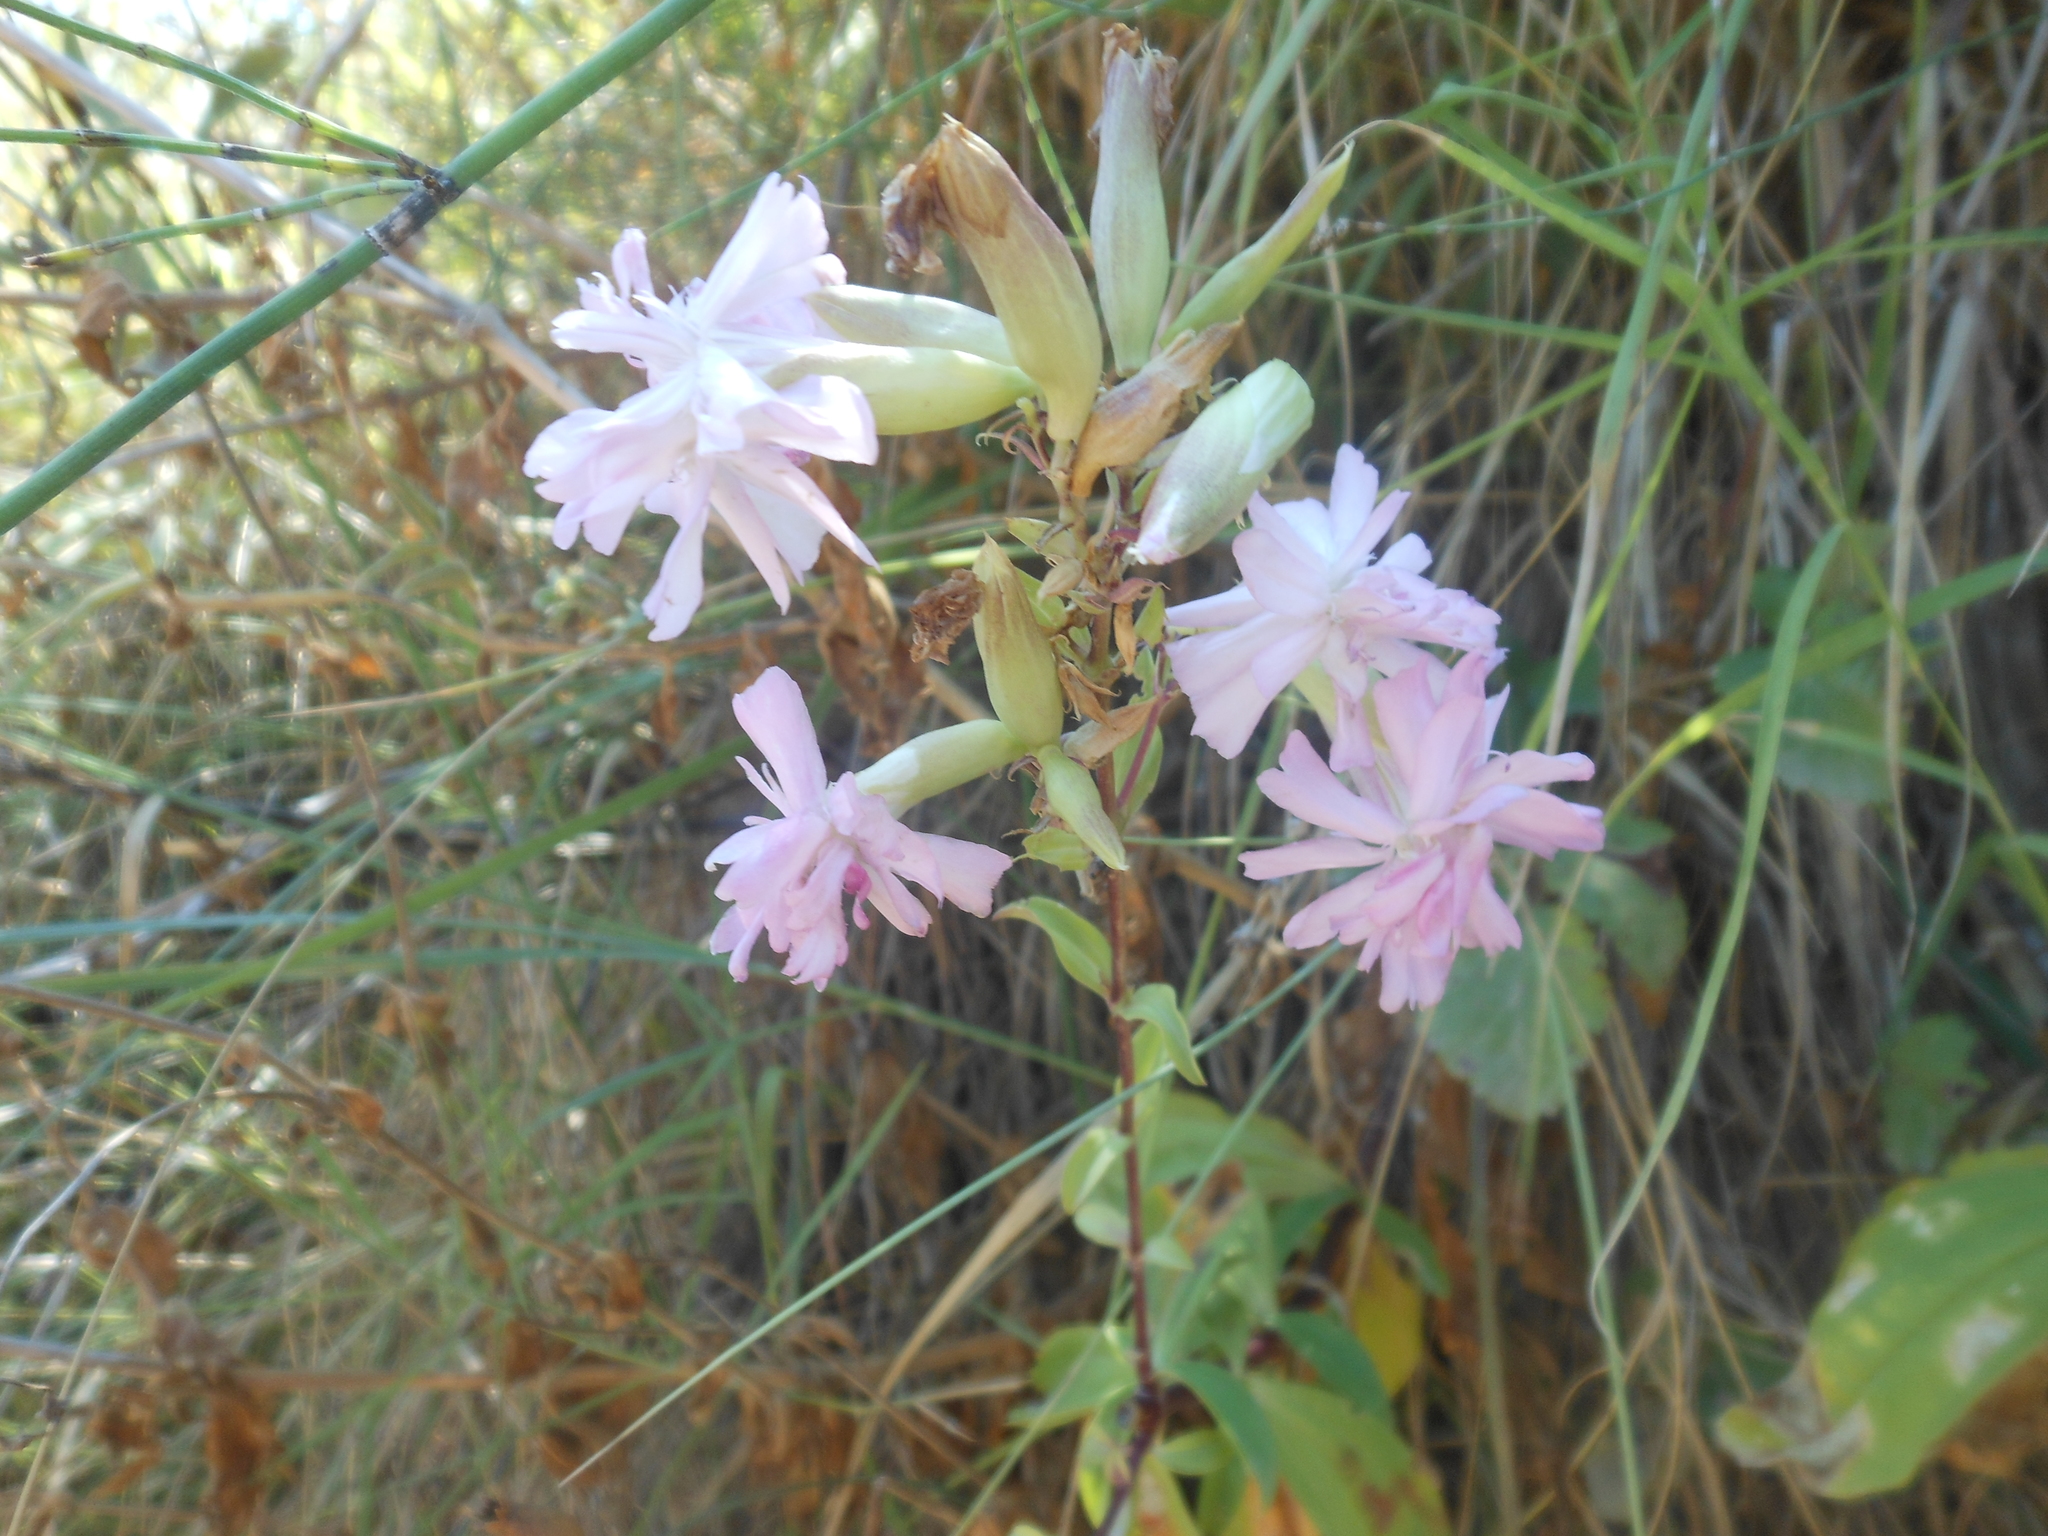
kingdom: Plantae
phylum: Tracheophyta
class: Magnoliopsida
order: Caryophyllales
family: Caryophyllaceae
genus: Saponaria
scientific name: Saponaria officinalis
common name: Soapwort
